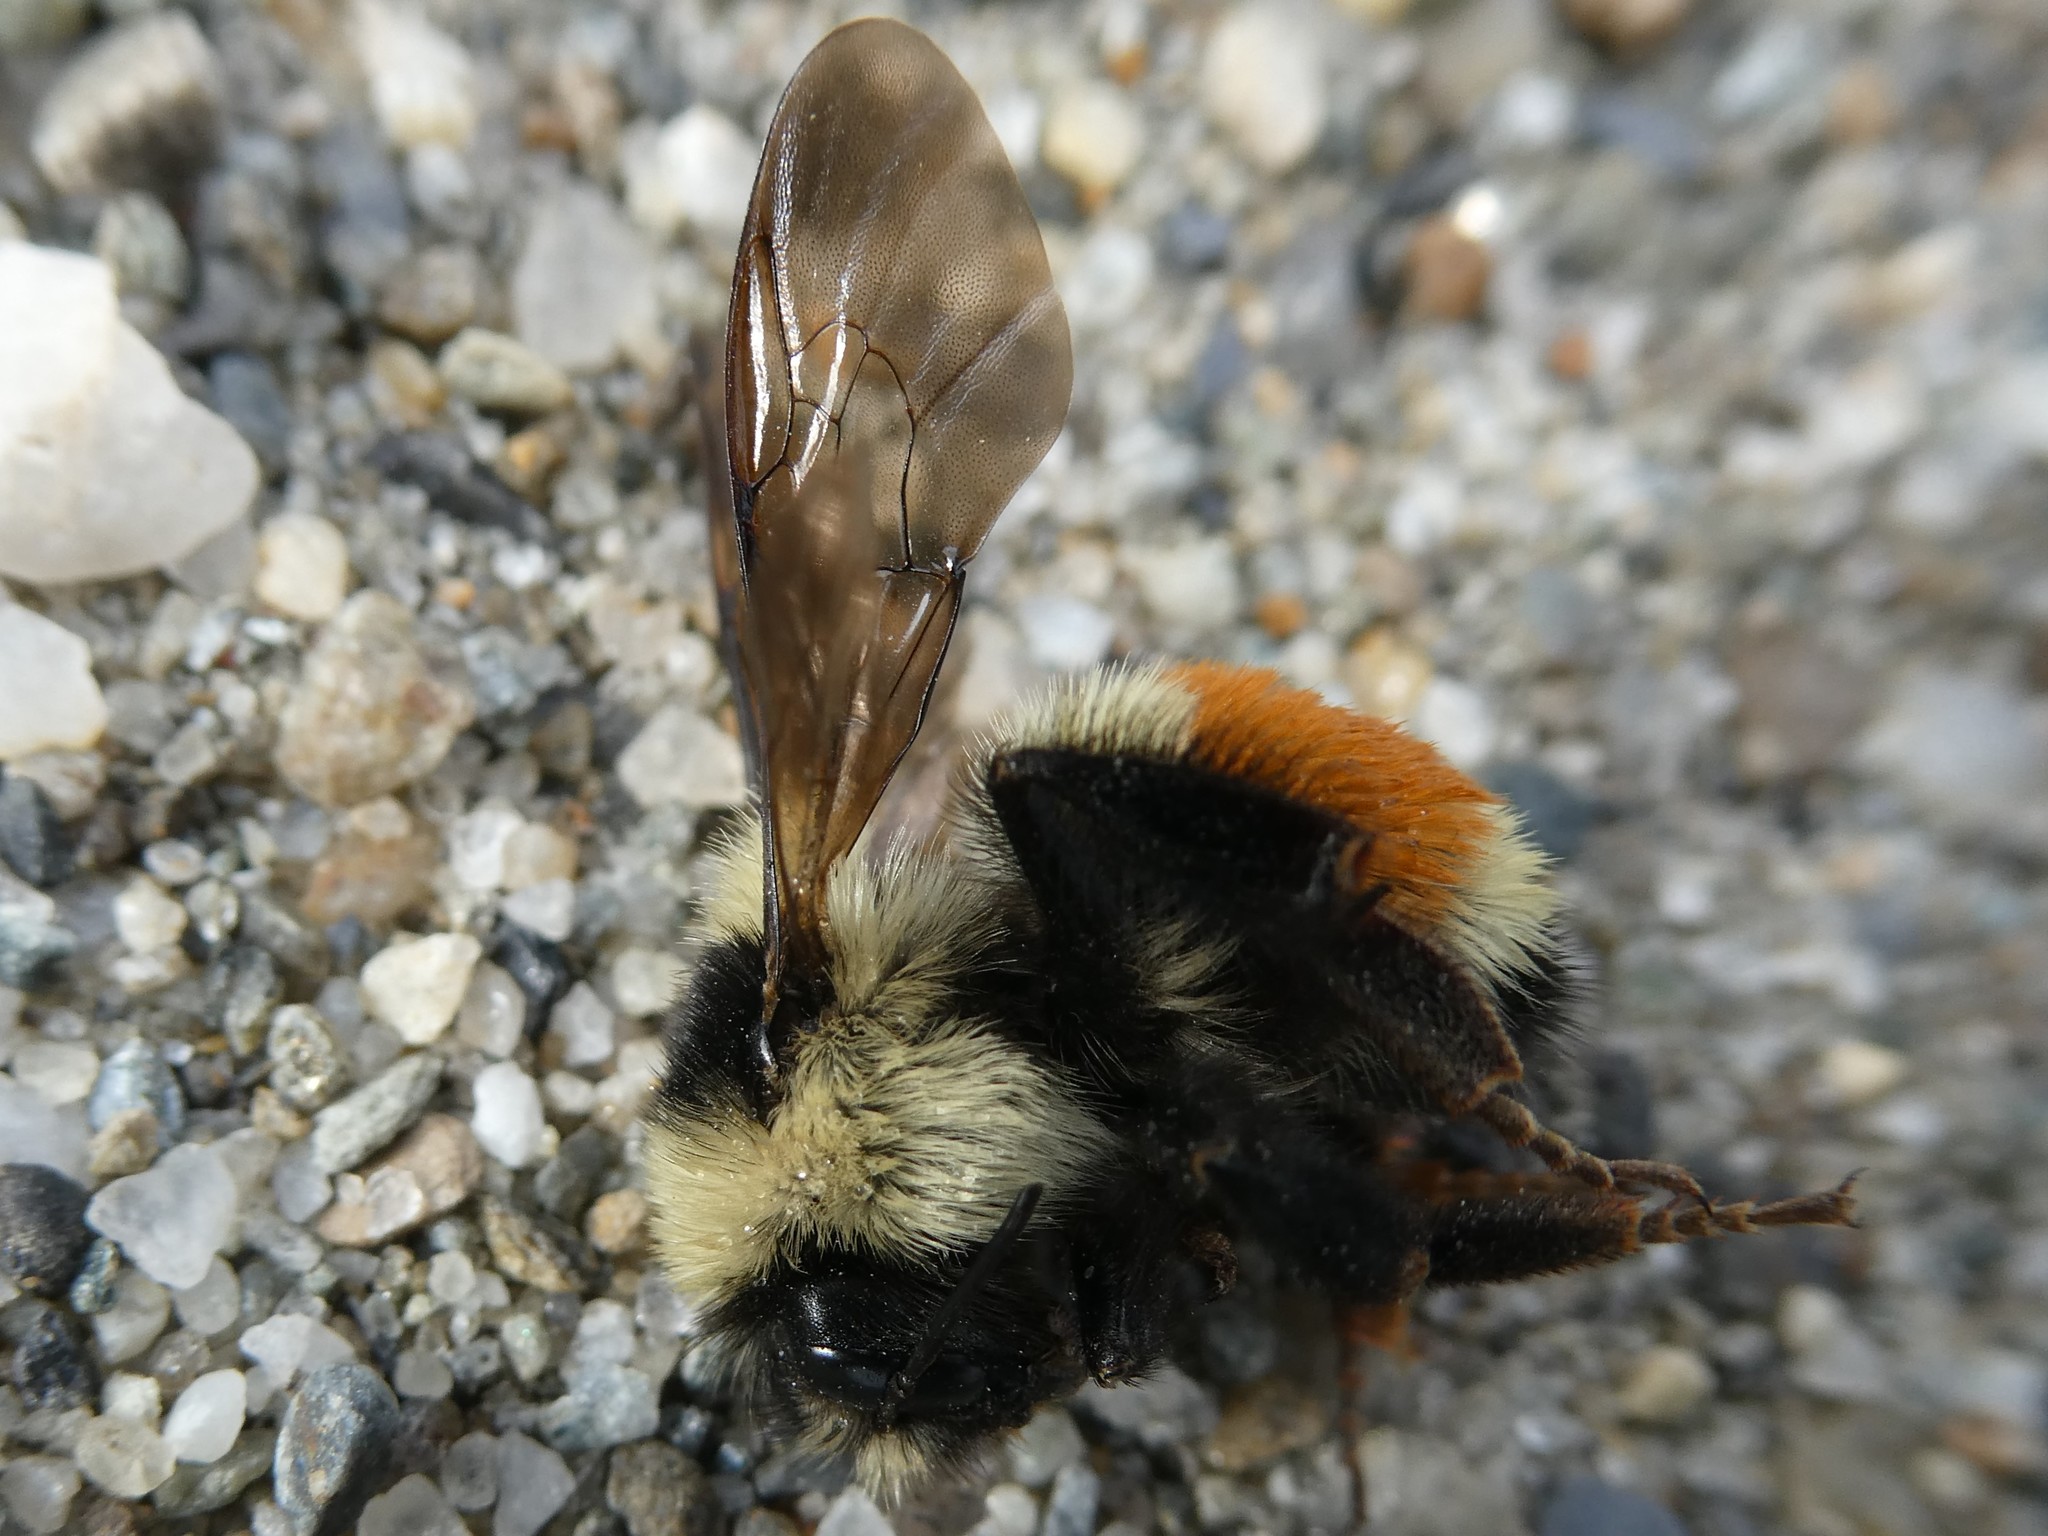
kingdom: Animalia
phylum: Arthropoda
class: Insecta
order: Hymenoptera
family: Apidae
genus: Bombus
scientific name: Bombus ternarius
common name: Tri-colored bumble bee
